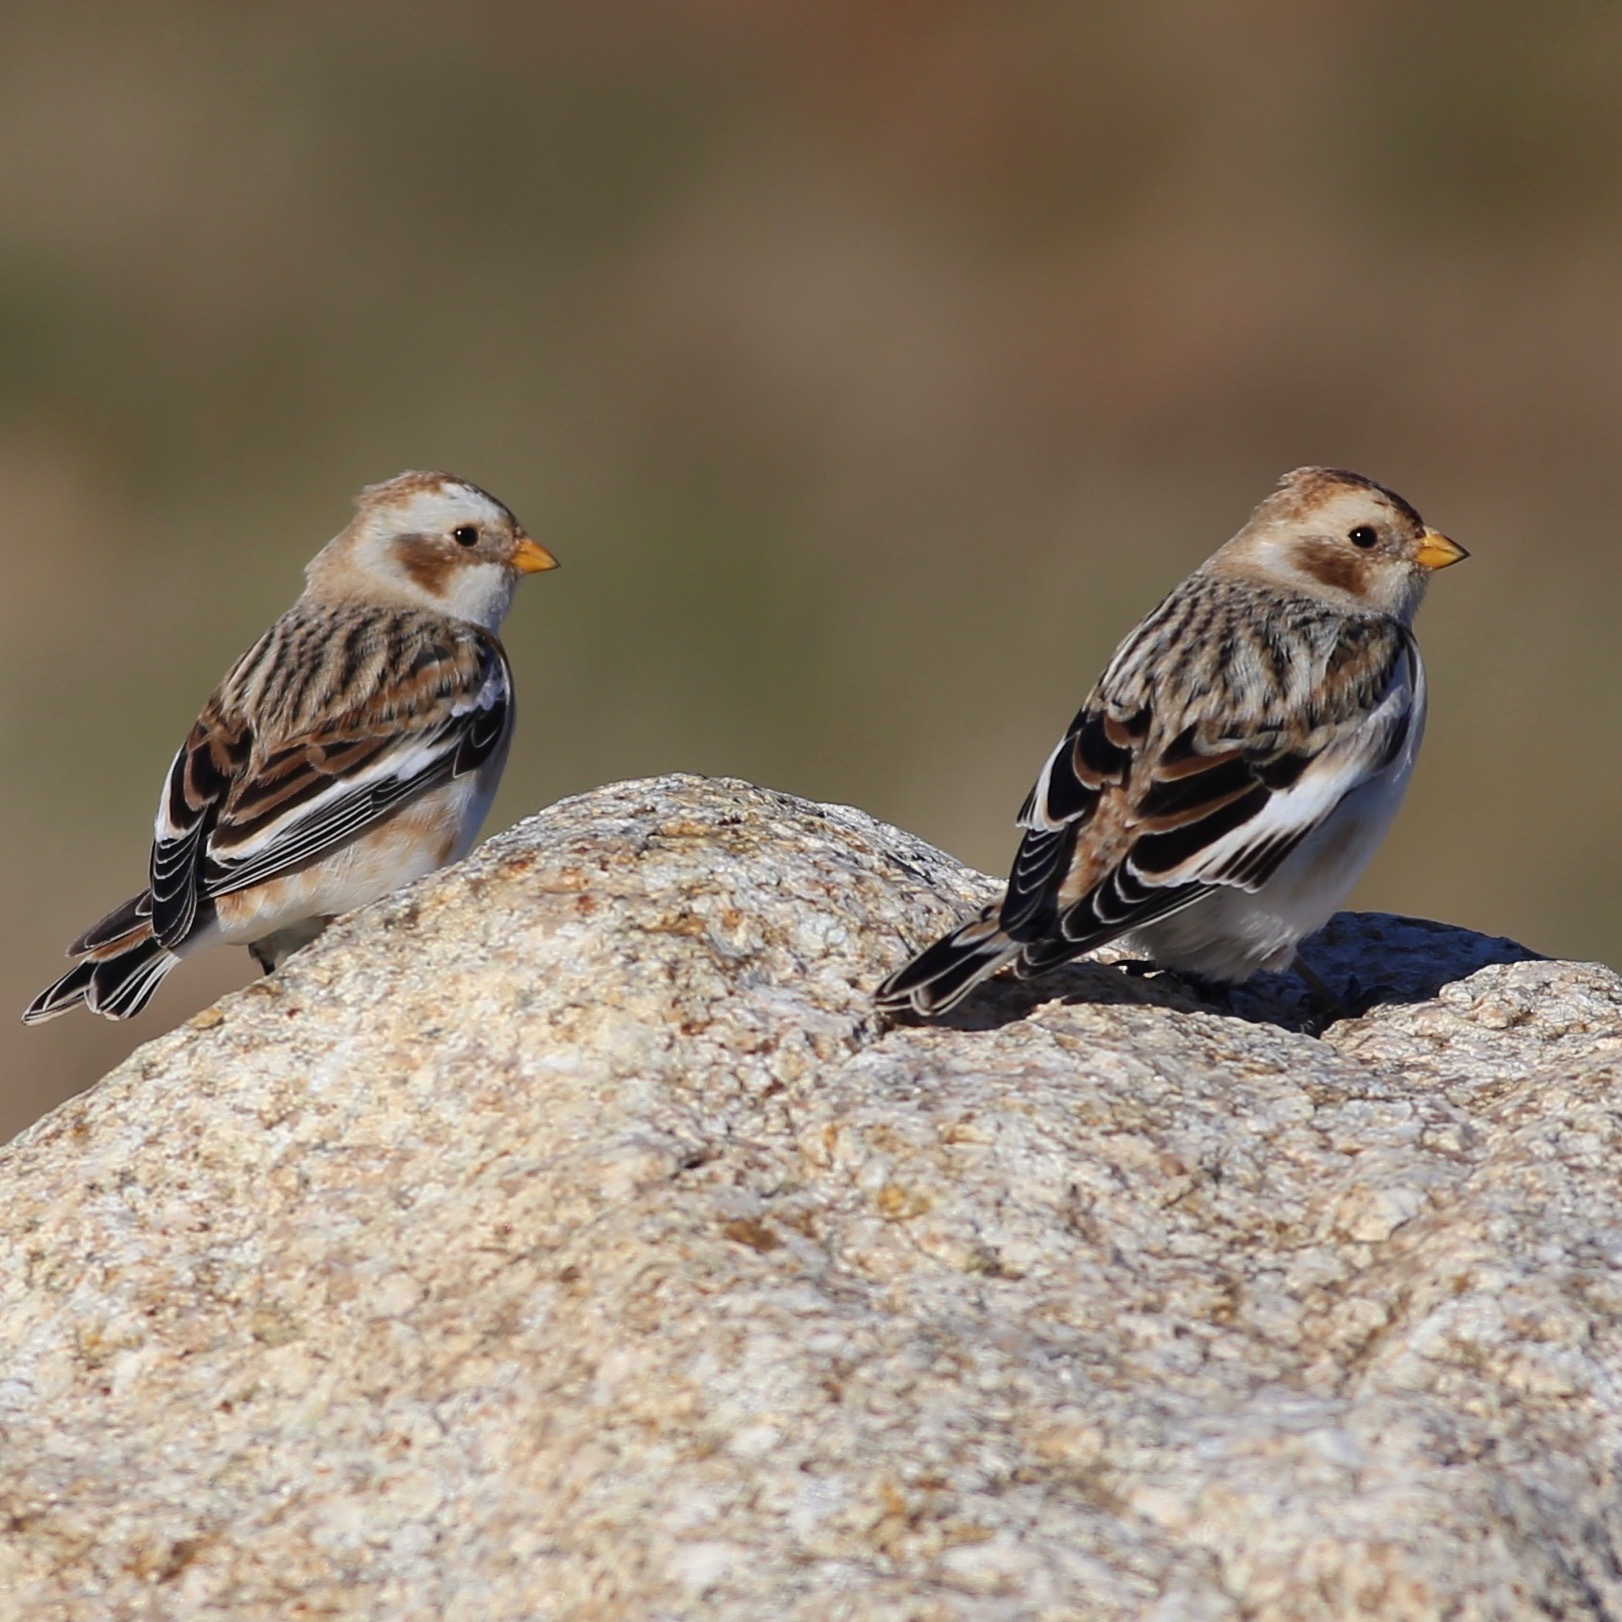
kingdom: Animalia
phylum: Chordata
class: Aves
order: Passeriformes
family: Calcariidae
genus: Plectrophenax
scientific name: Plectrophenax nivalis
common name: Snow bunting
